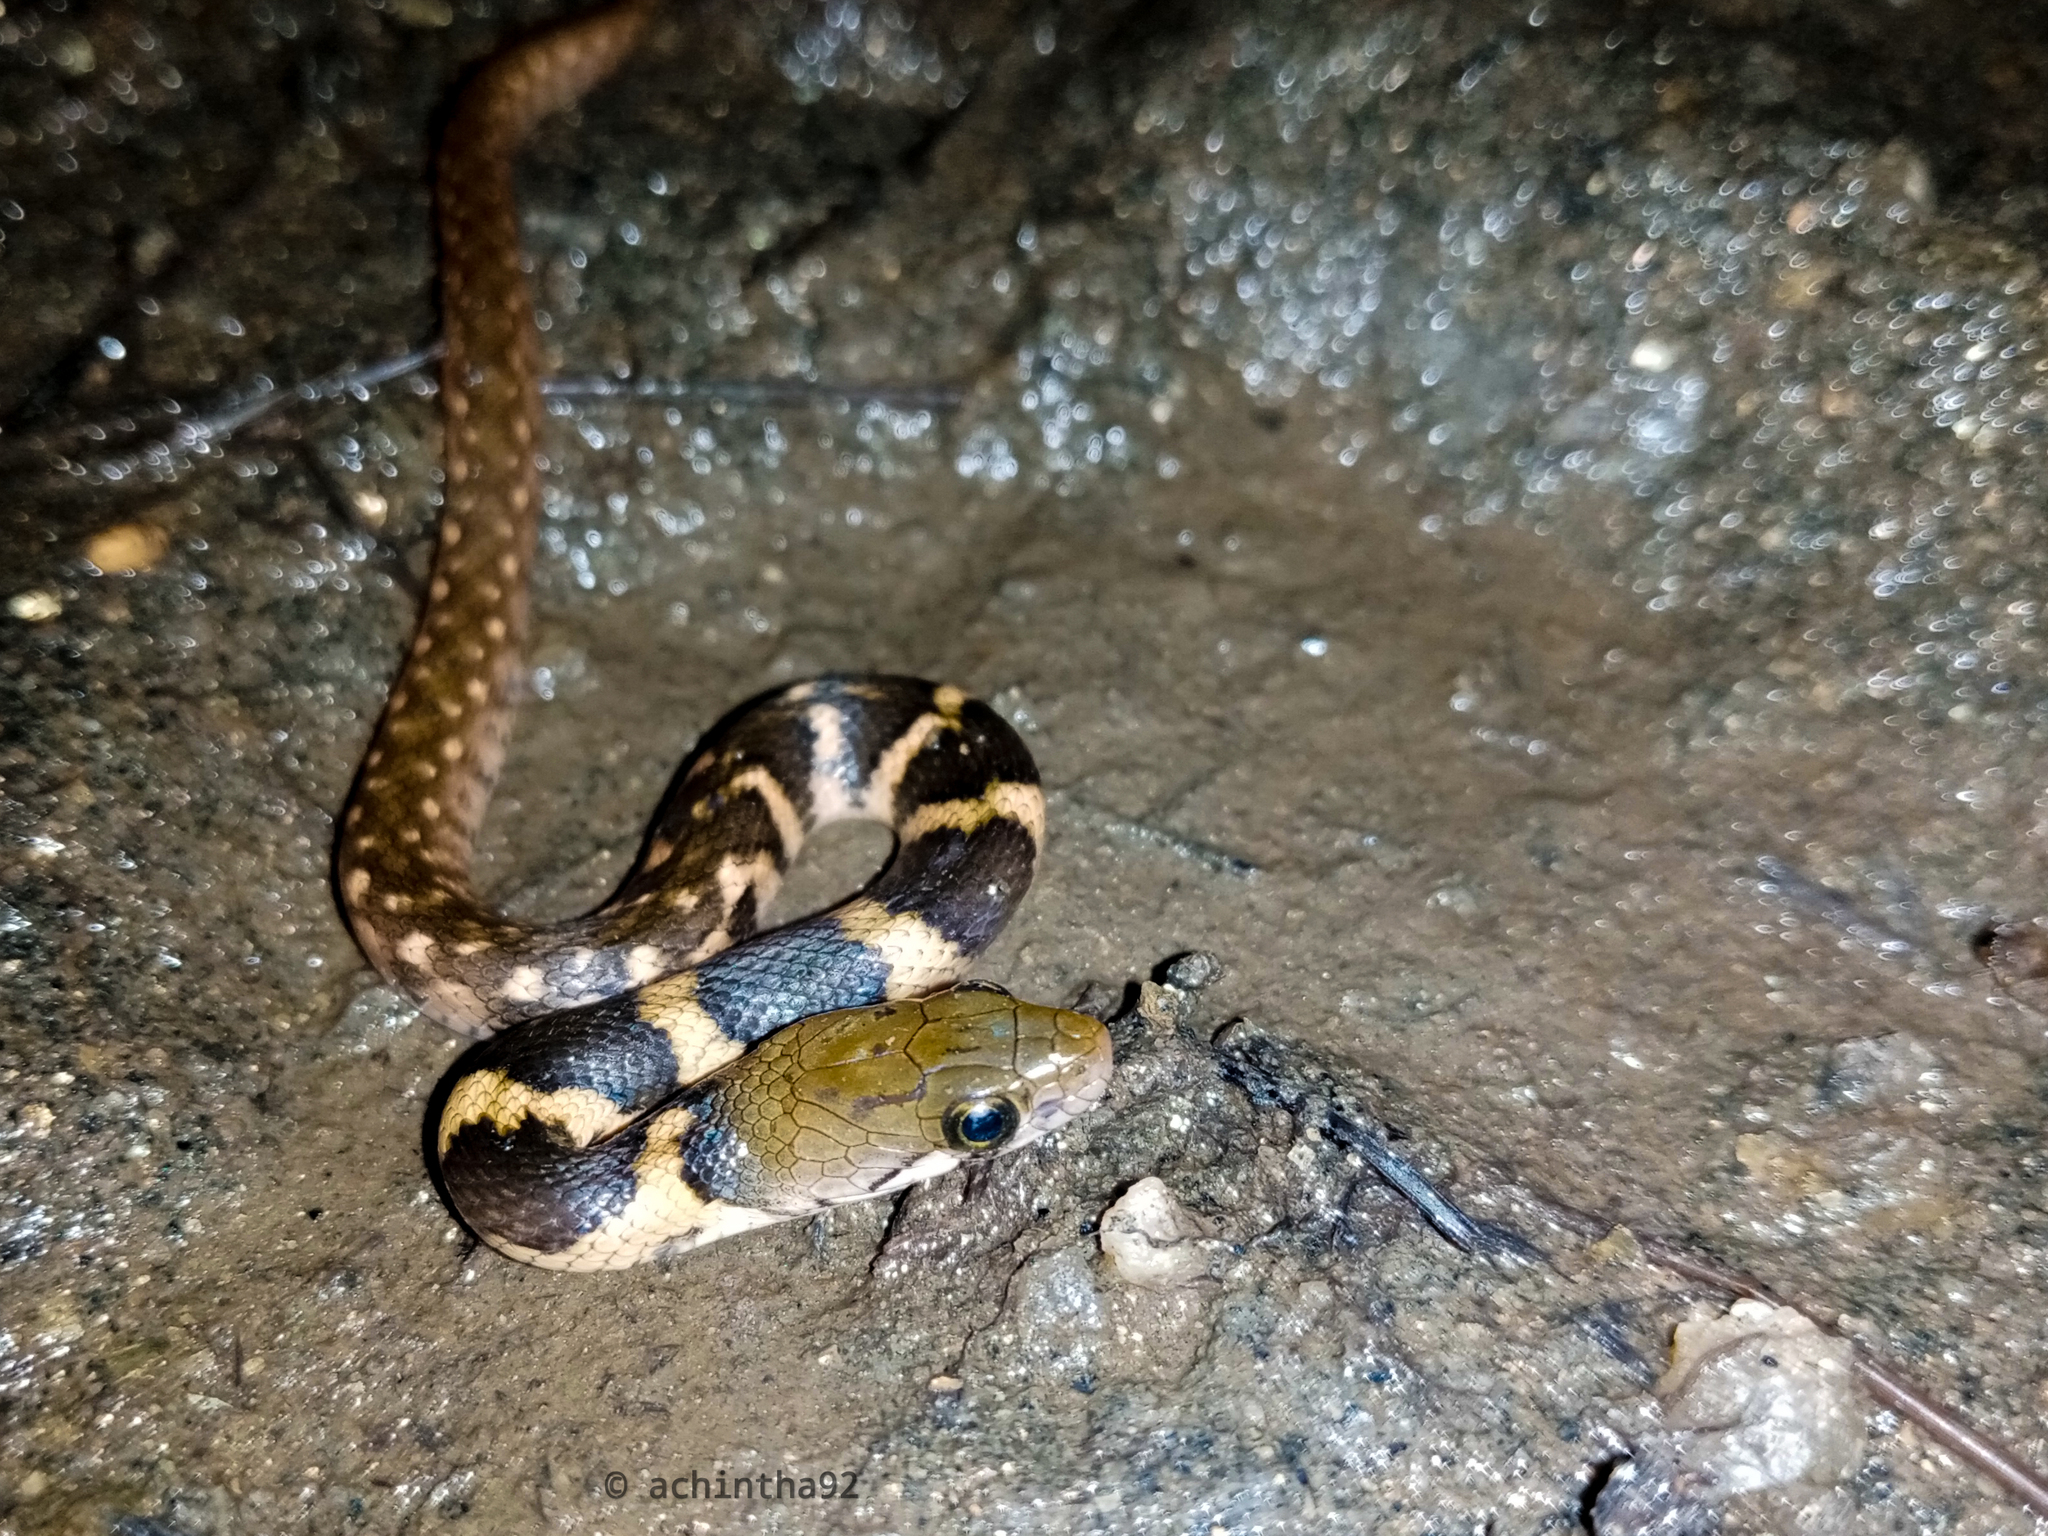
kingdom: Animalia
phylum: Chordata
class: Squamata
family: Colubridae
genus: Fowlea
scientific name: Fowlea asperrimus
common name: Boulenger's keelback
